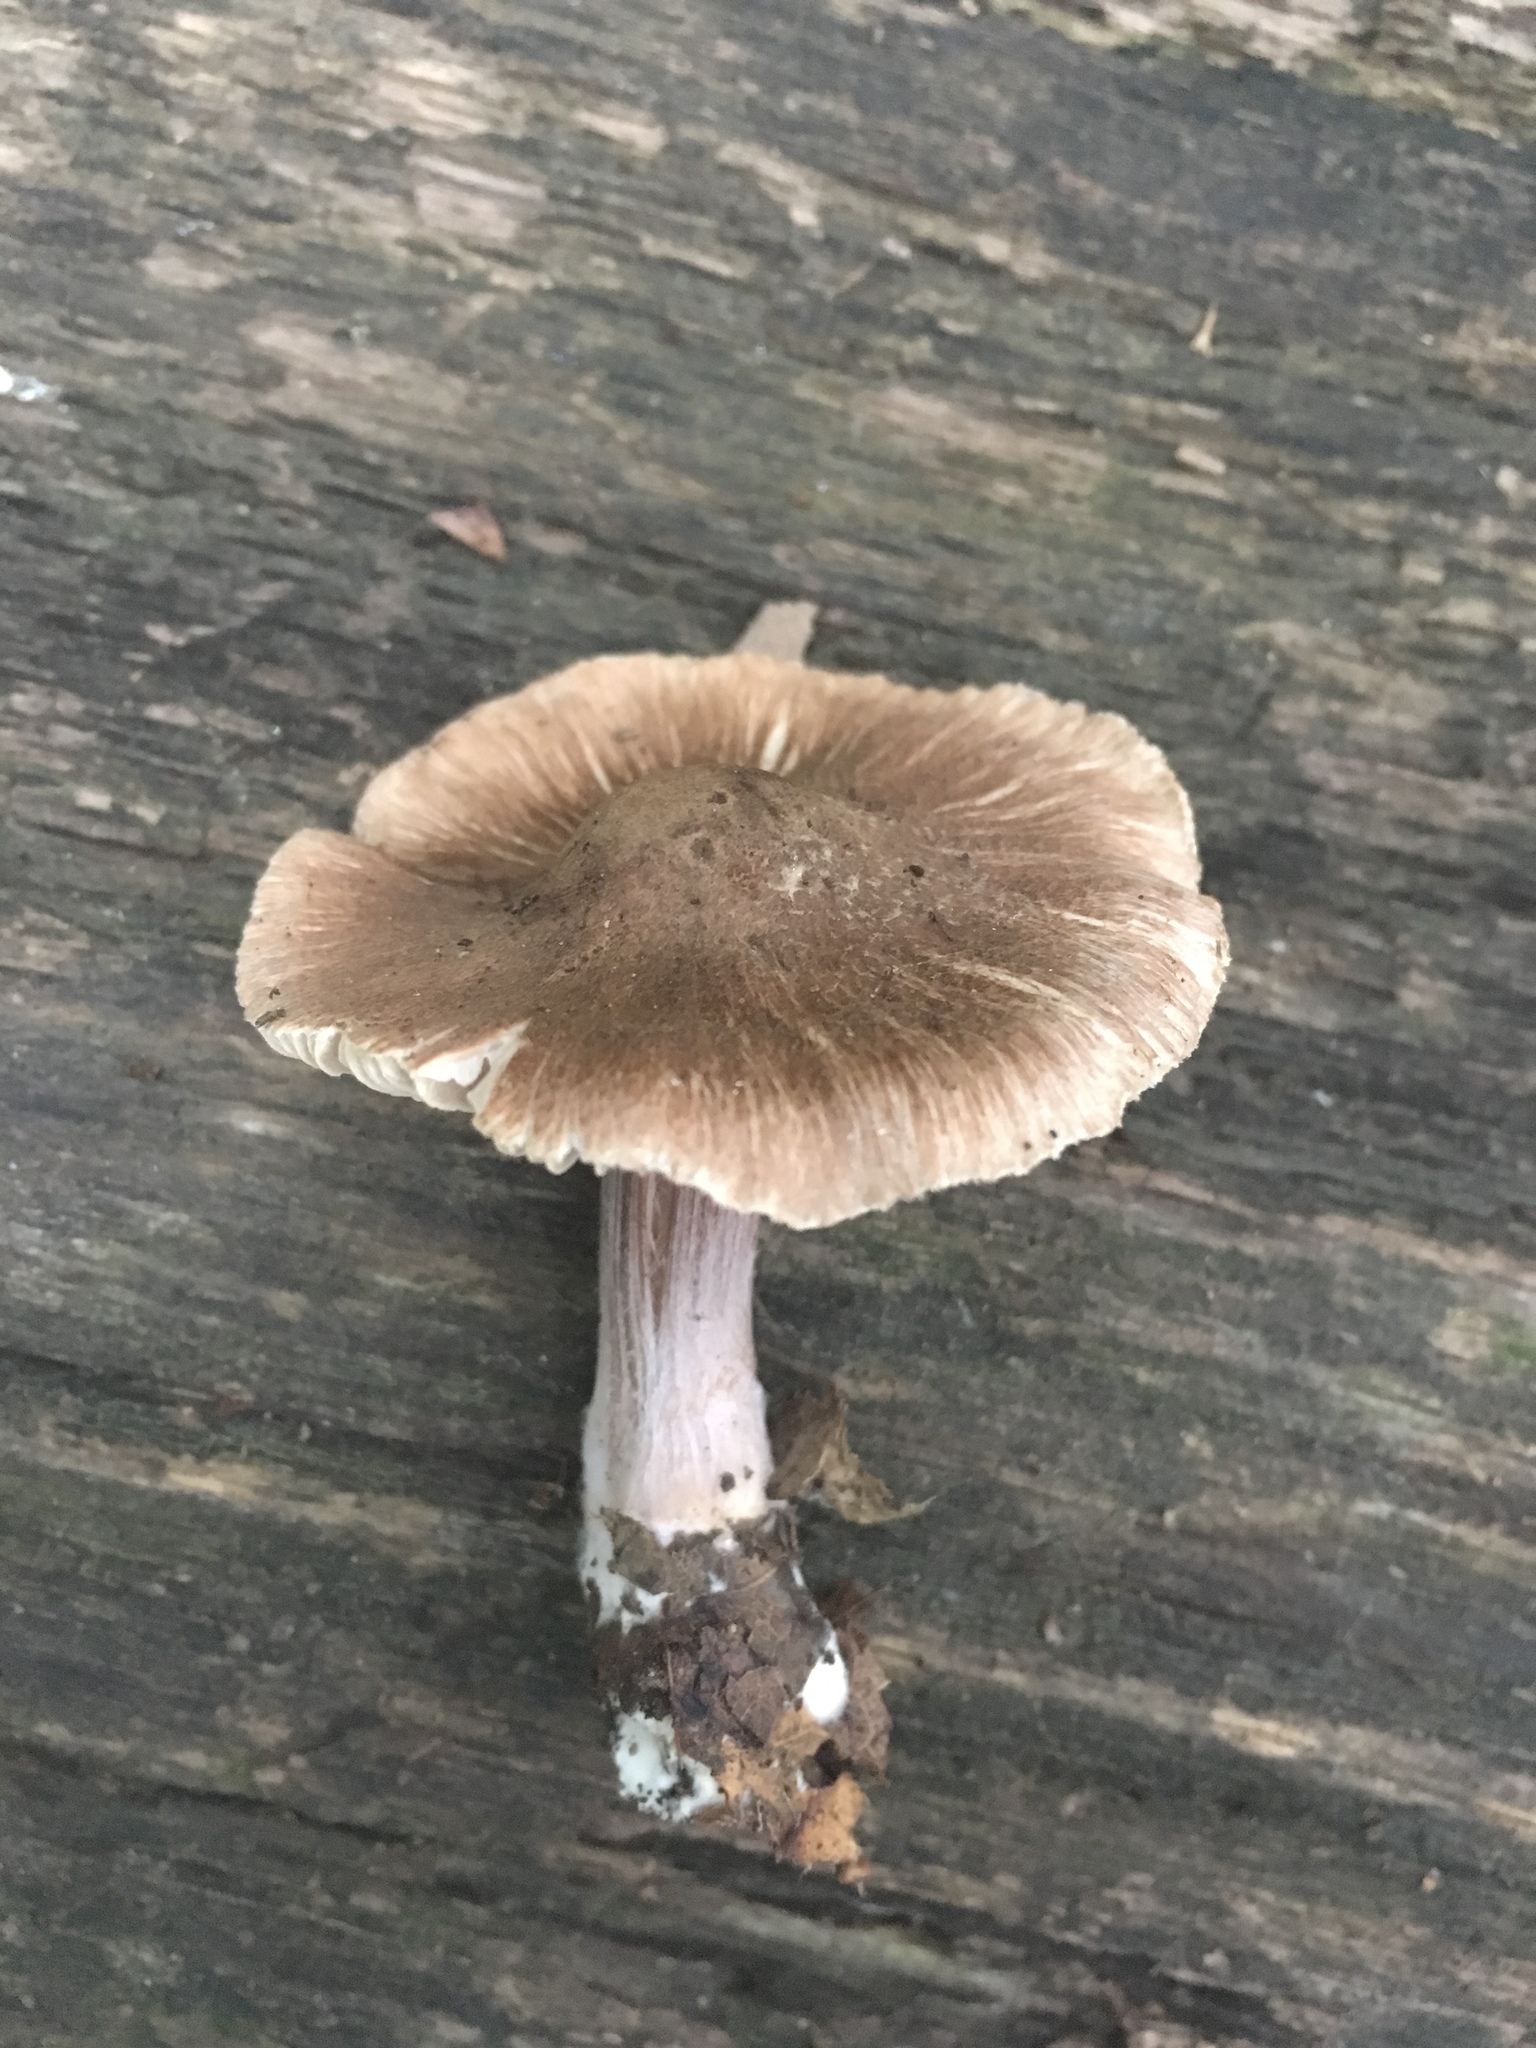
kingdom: Fungi
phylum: Basidiomycota
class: Agaricomycetes
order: Agaricales
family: Tricholomataceae
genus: Tricholoma
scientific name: Tricholoma terreum
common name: Grey knight
